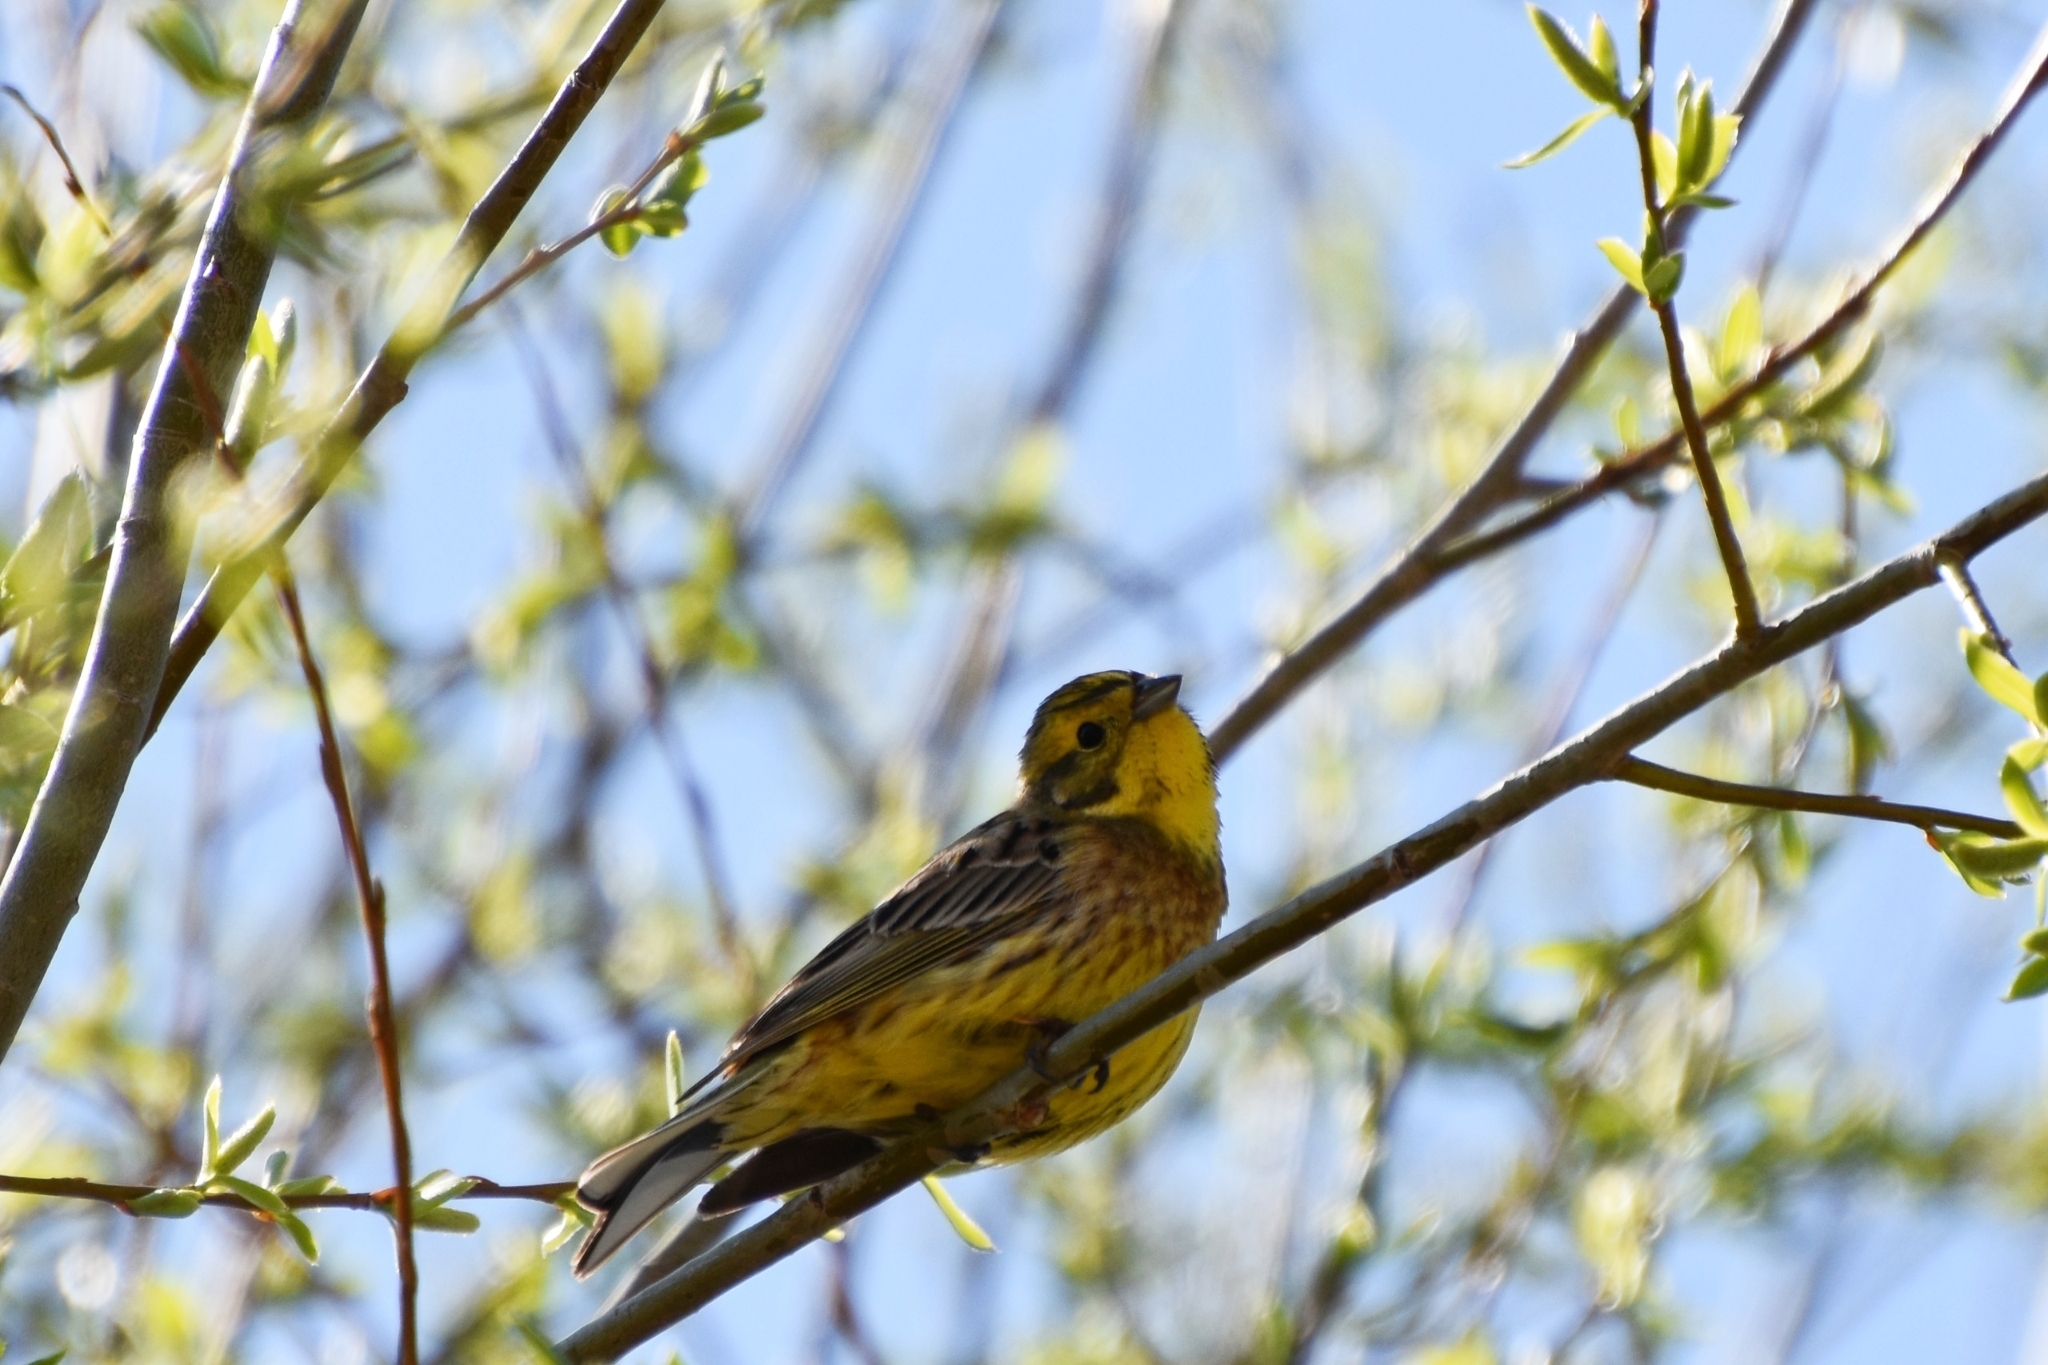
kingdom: Animalia
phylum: Chordata
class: Aves
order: Passeriformes
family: Emberizidae
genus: Emberiza
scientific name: Emberiza citrinella
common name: Yellowhammer
